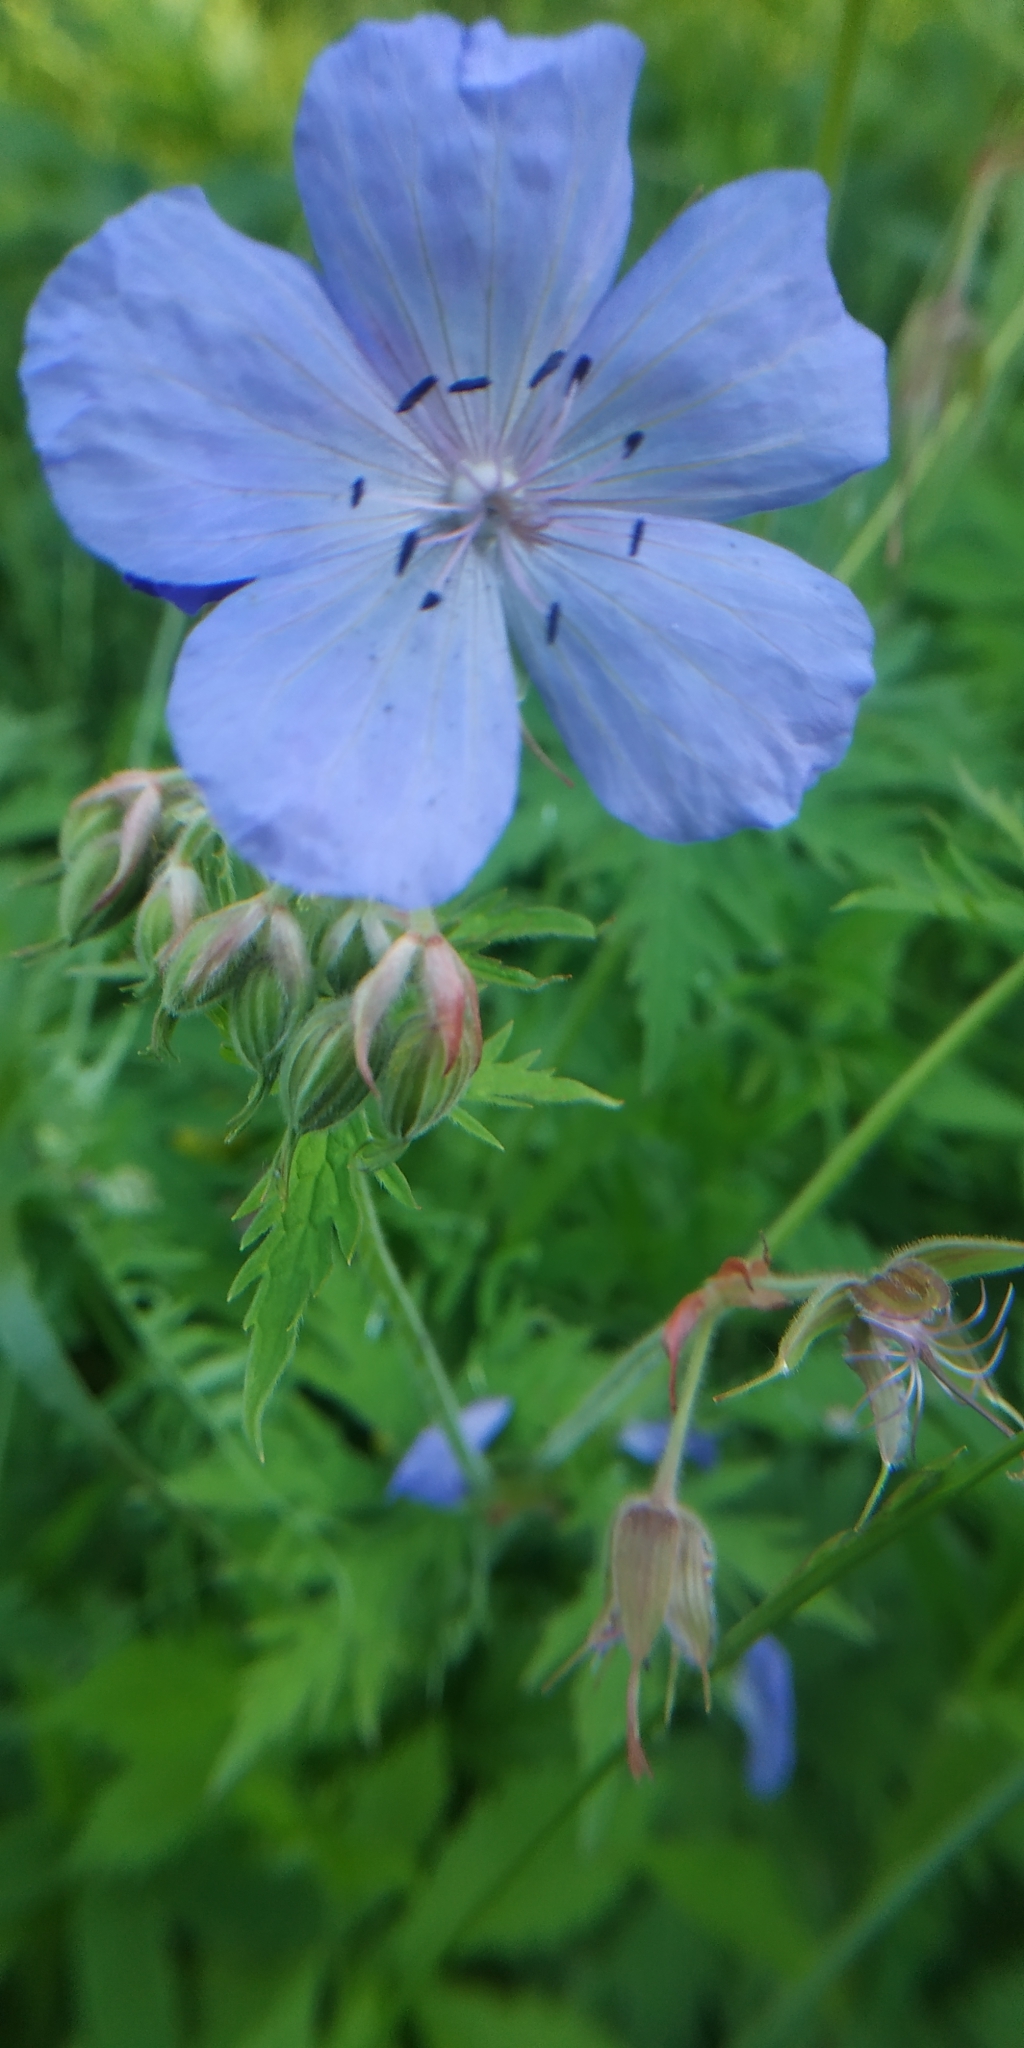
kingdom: Plantae
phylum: Tracheophyta
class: Magnoliopsida
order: Geraniales
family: Geraniaceae
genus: Geranium
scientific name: Geranium pratense
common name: Meadow crane's-bill
